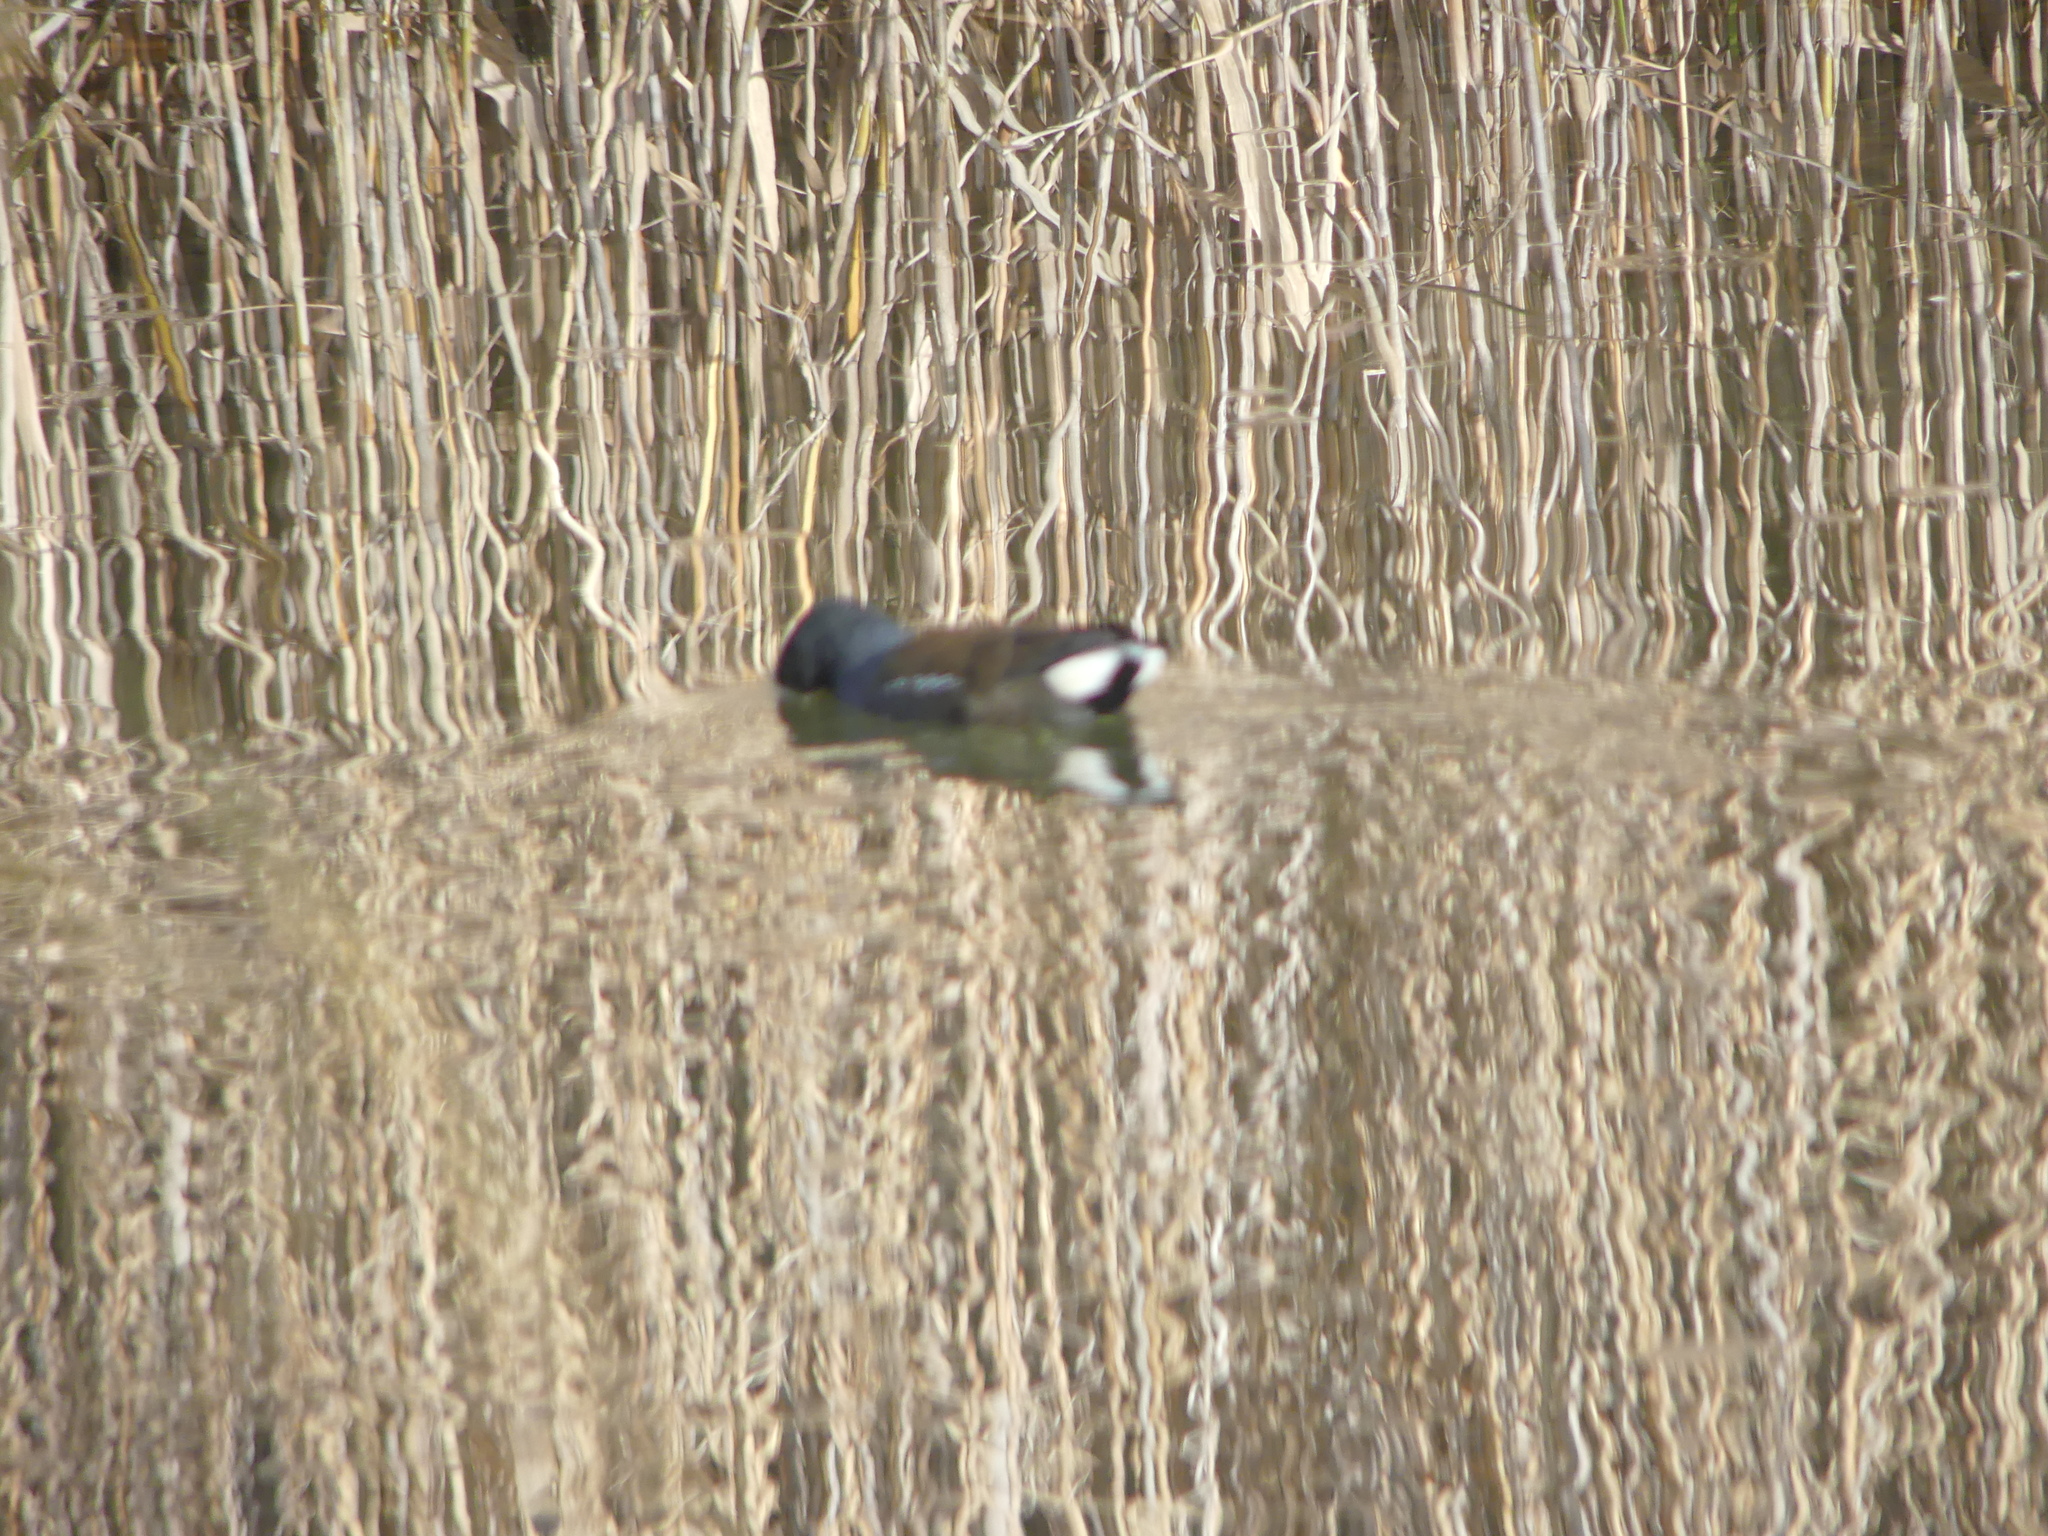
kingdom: Animalia
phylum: Chordata
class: Aves
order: Gruiformes
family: Rallidae
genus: Gallinula
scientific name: Gallinula chloropus
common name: Common moorhen
